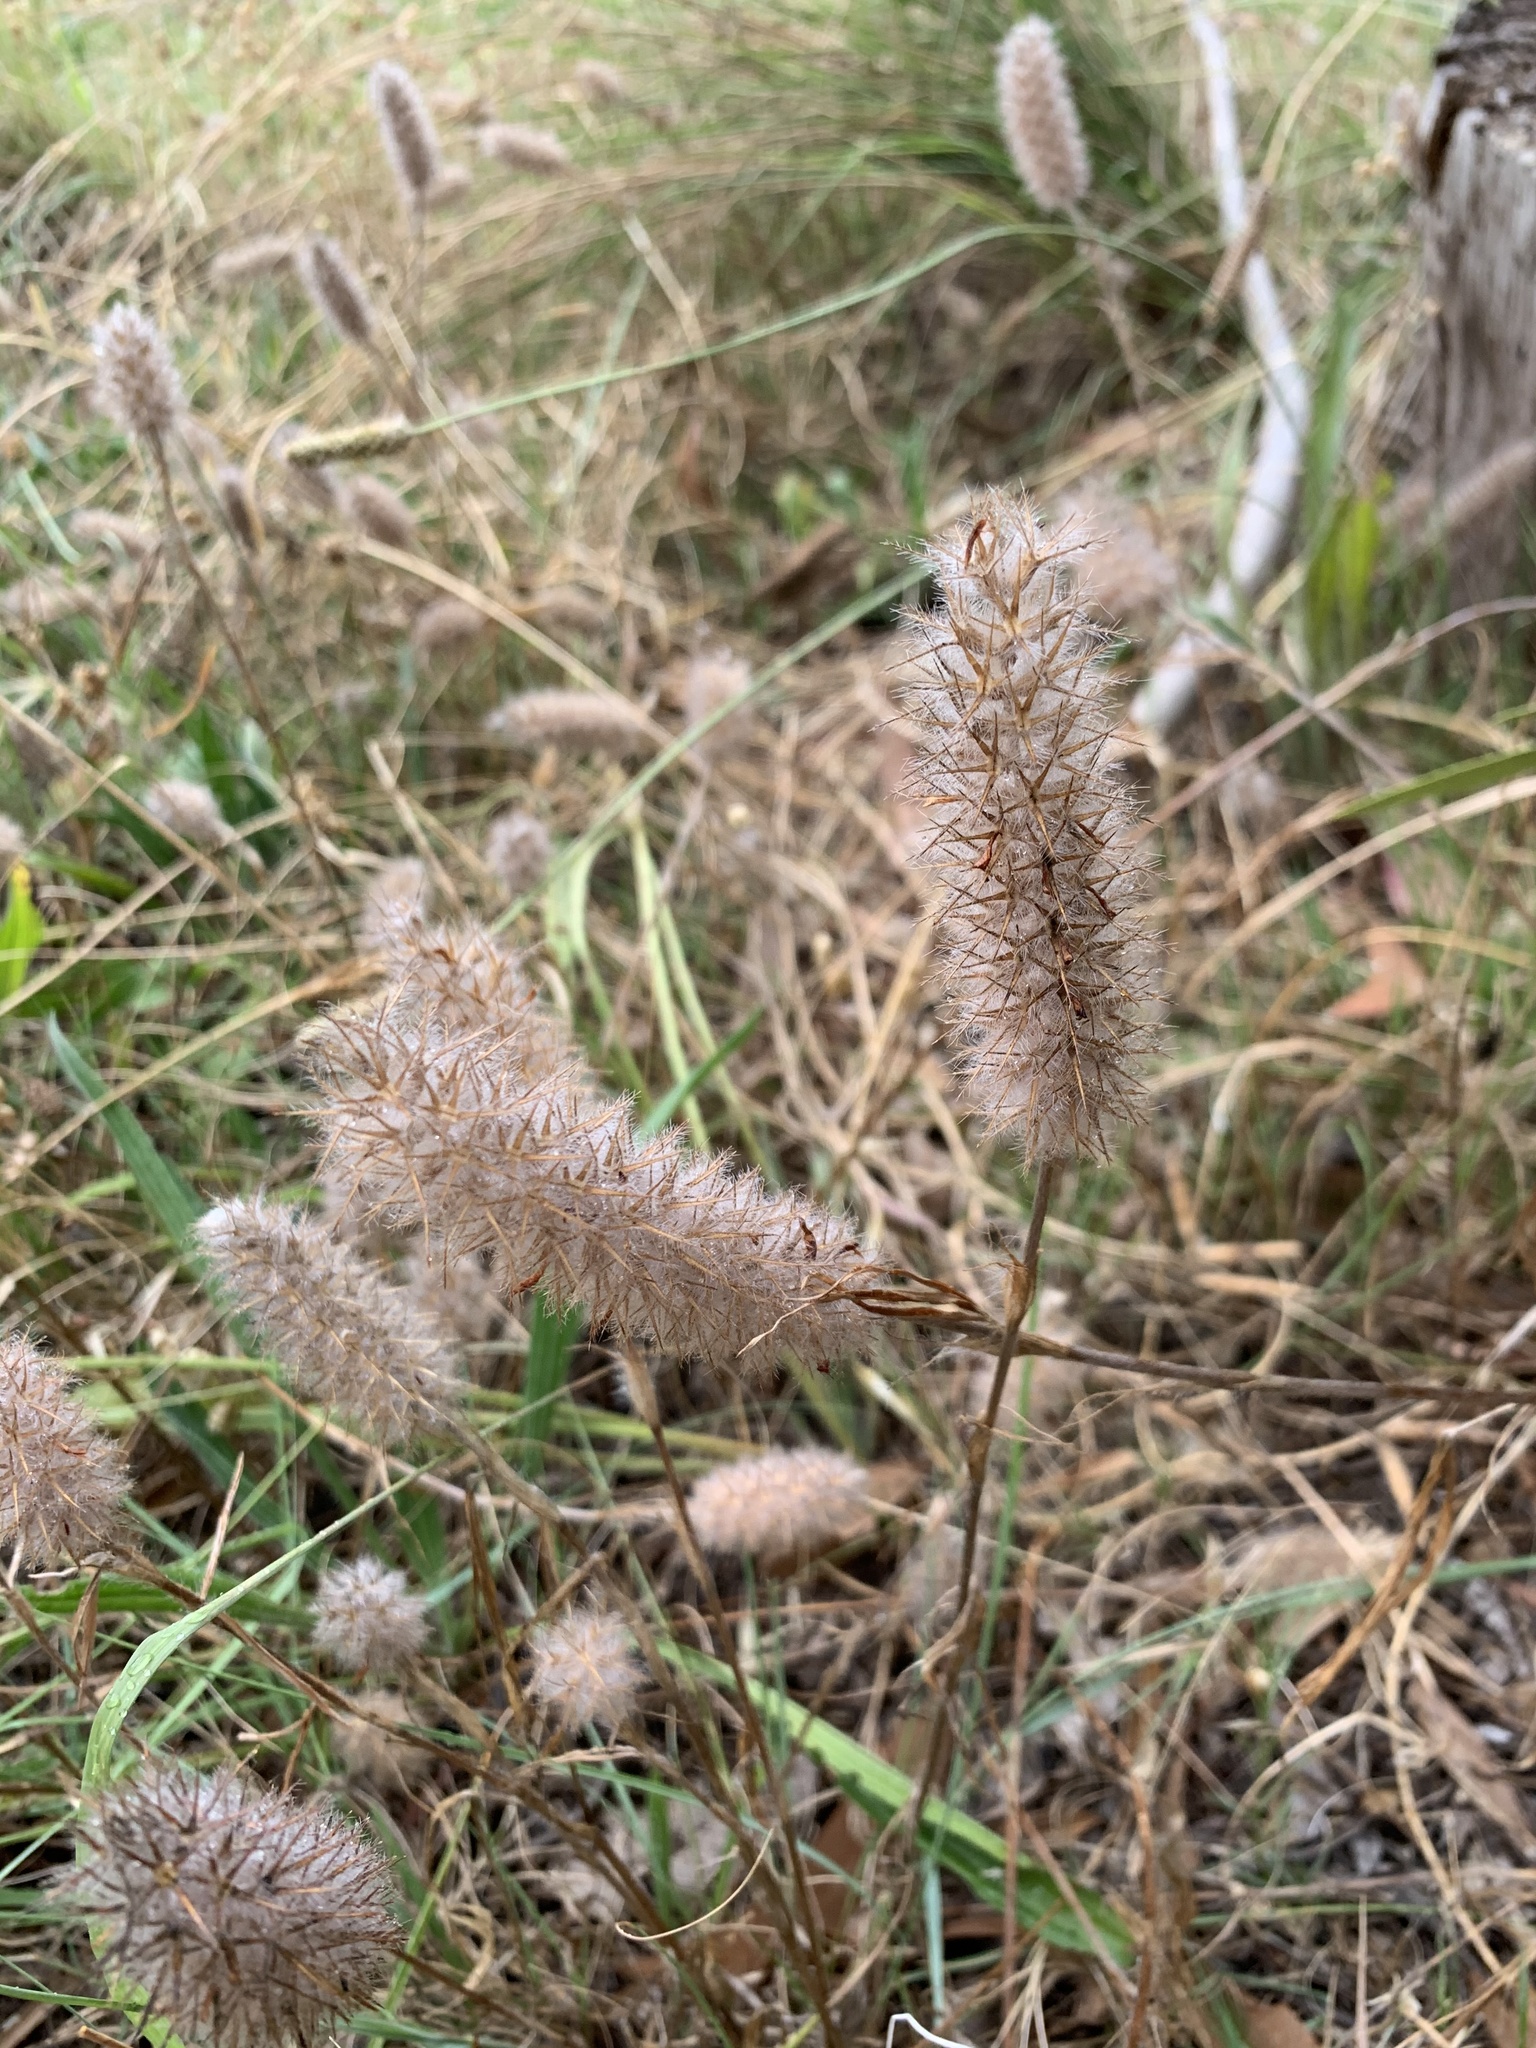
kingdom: Plantae
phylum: Tracheophyta
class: Magnoliopsida
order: Fabales
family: Fabaceae
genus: Trifolium
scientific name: Trifolium angustifolium
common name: Narrow clover
